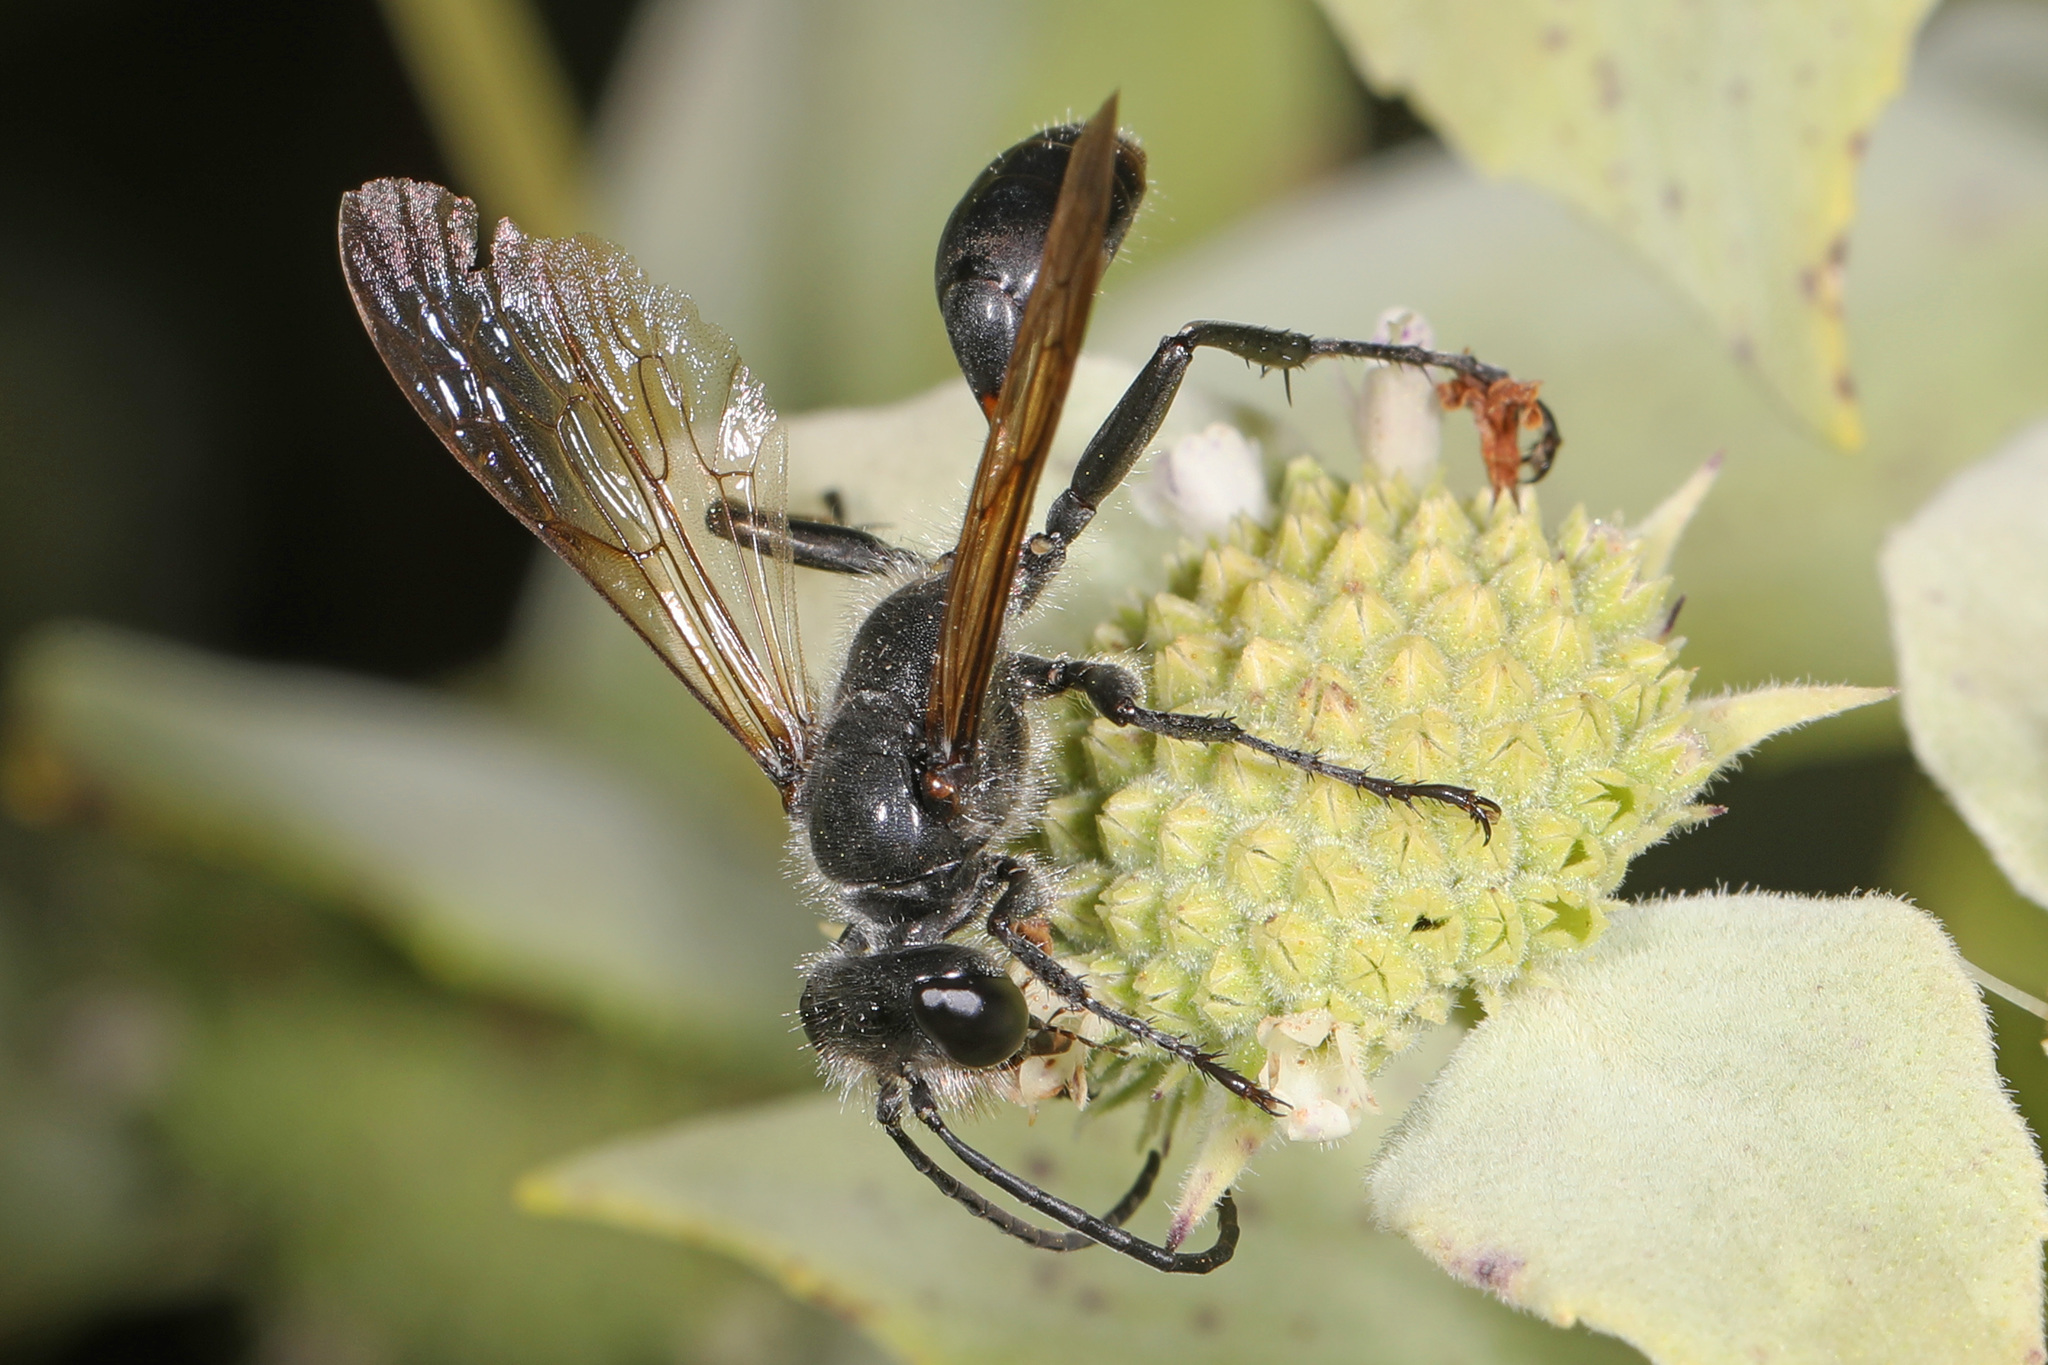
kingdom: Animalia
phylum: Arthropoda
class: Insecta
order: Hymenoptera
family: Sphecidae
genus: Isodontia
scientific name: Isodontia mexicana
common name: Mud dauber
